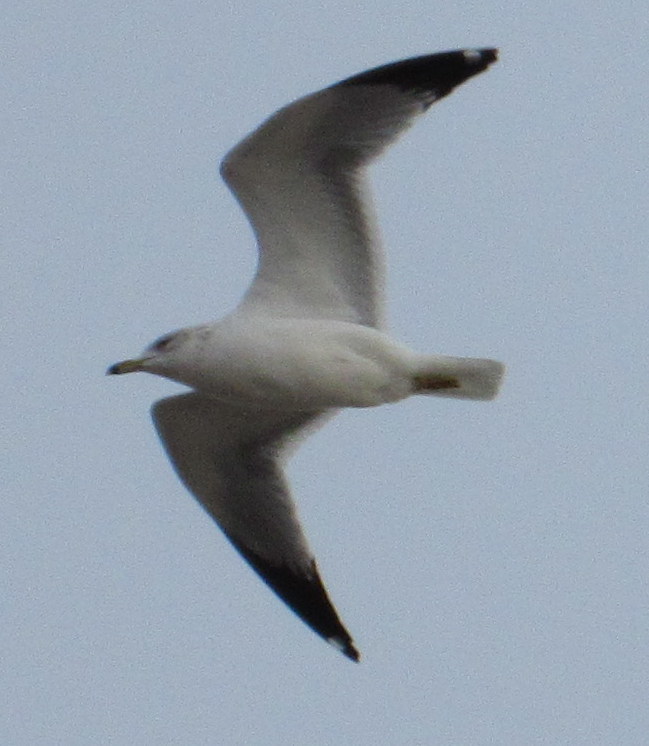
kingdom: Animalia
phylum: Chordata
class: Aves
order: Charadriiformes
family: Laridae
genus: Larus
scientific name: Larus delawarensis
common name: Ring-billed gull
